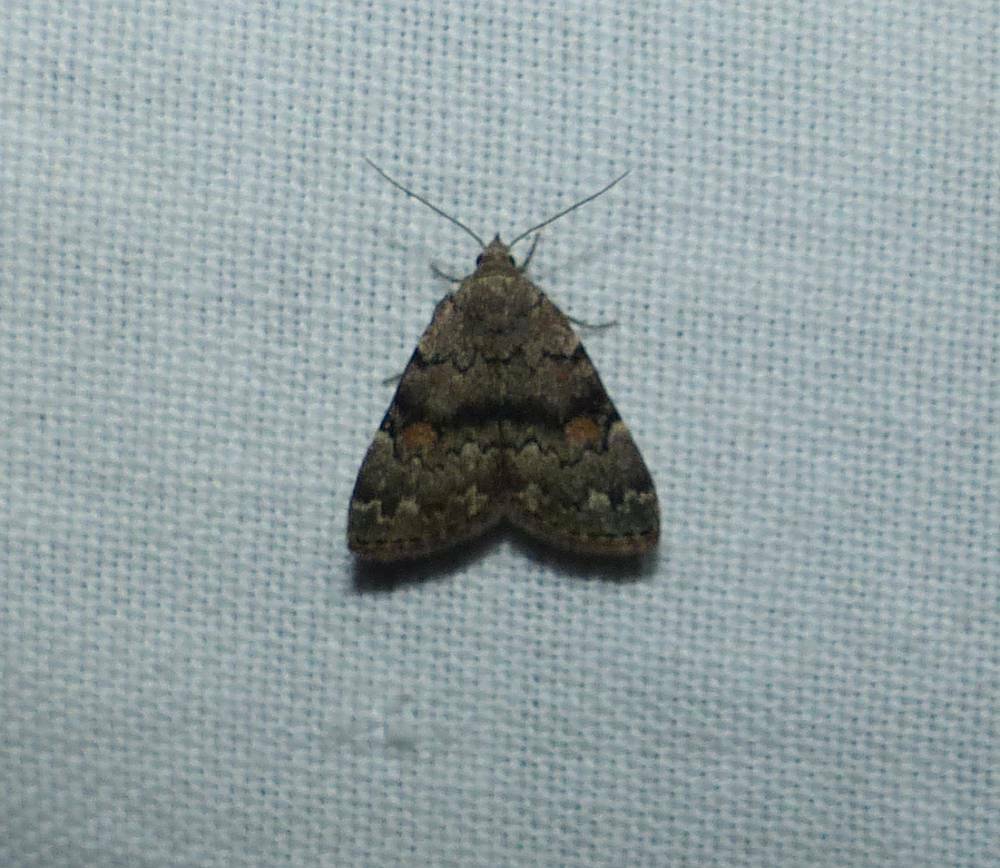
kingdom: Animalia
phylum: Arthropoda
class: Insecta
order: Lepidoptera
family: Erebidae
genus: Idia
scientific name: Idia aemula
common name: Common idia moth
